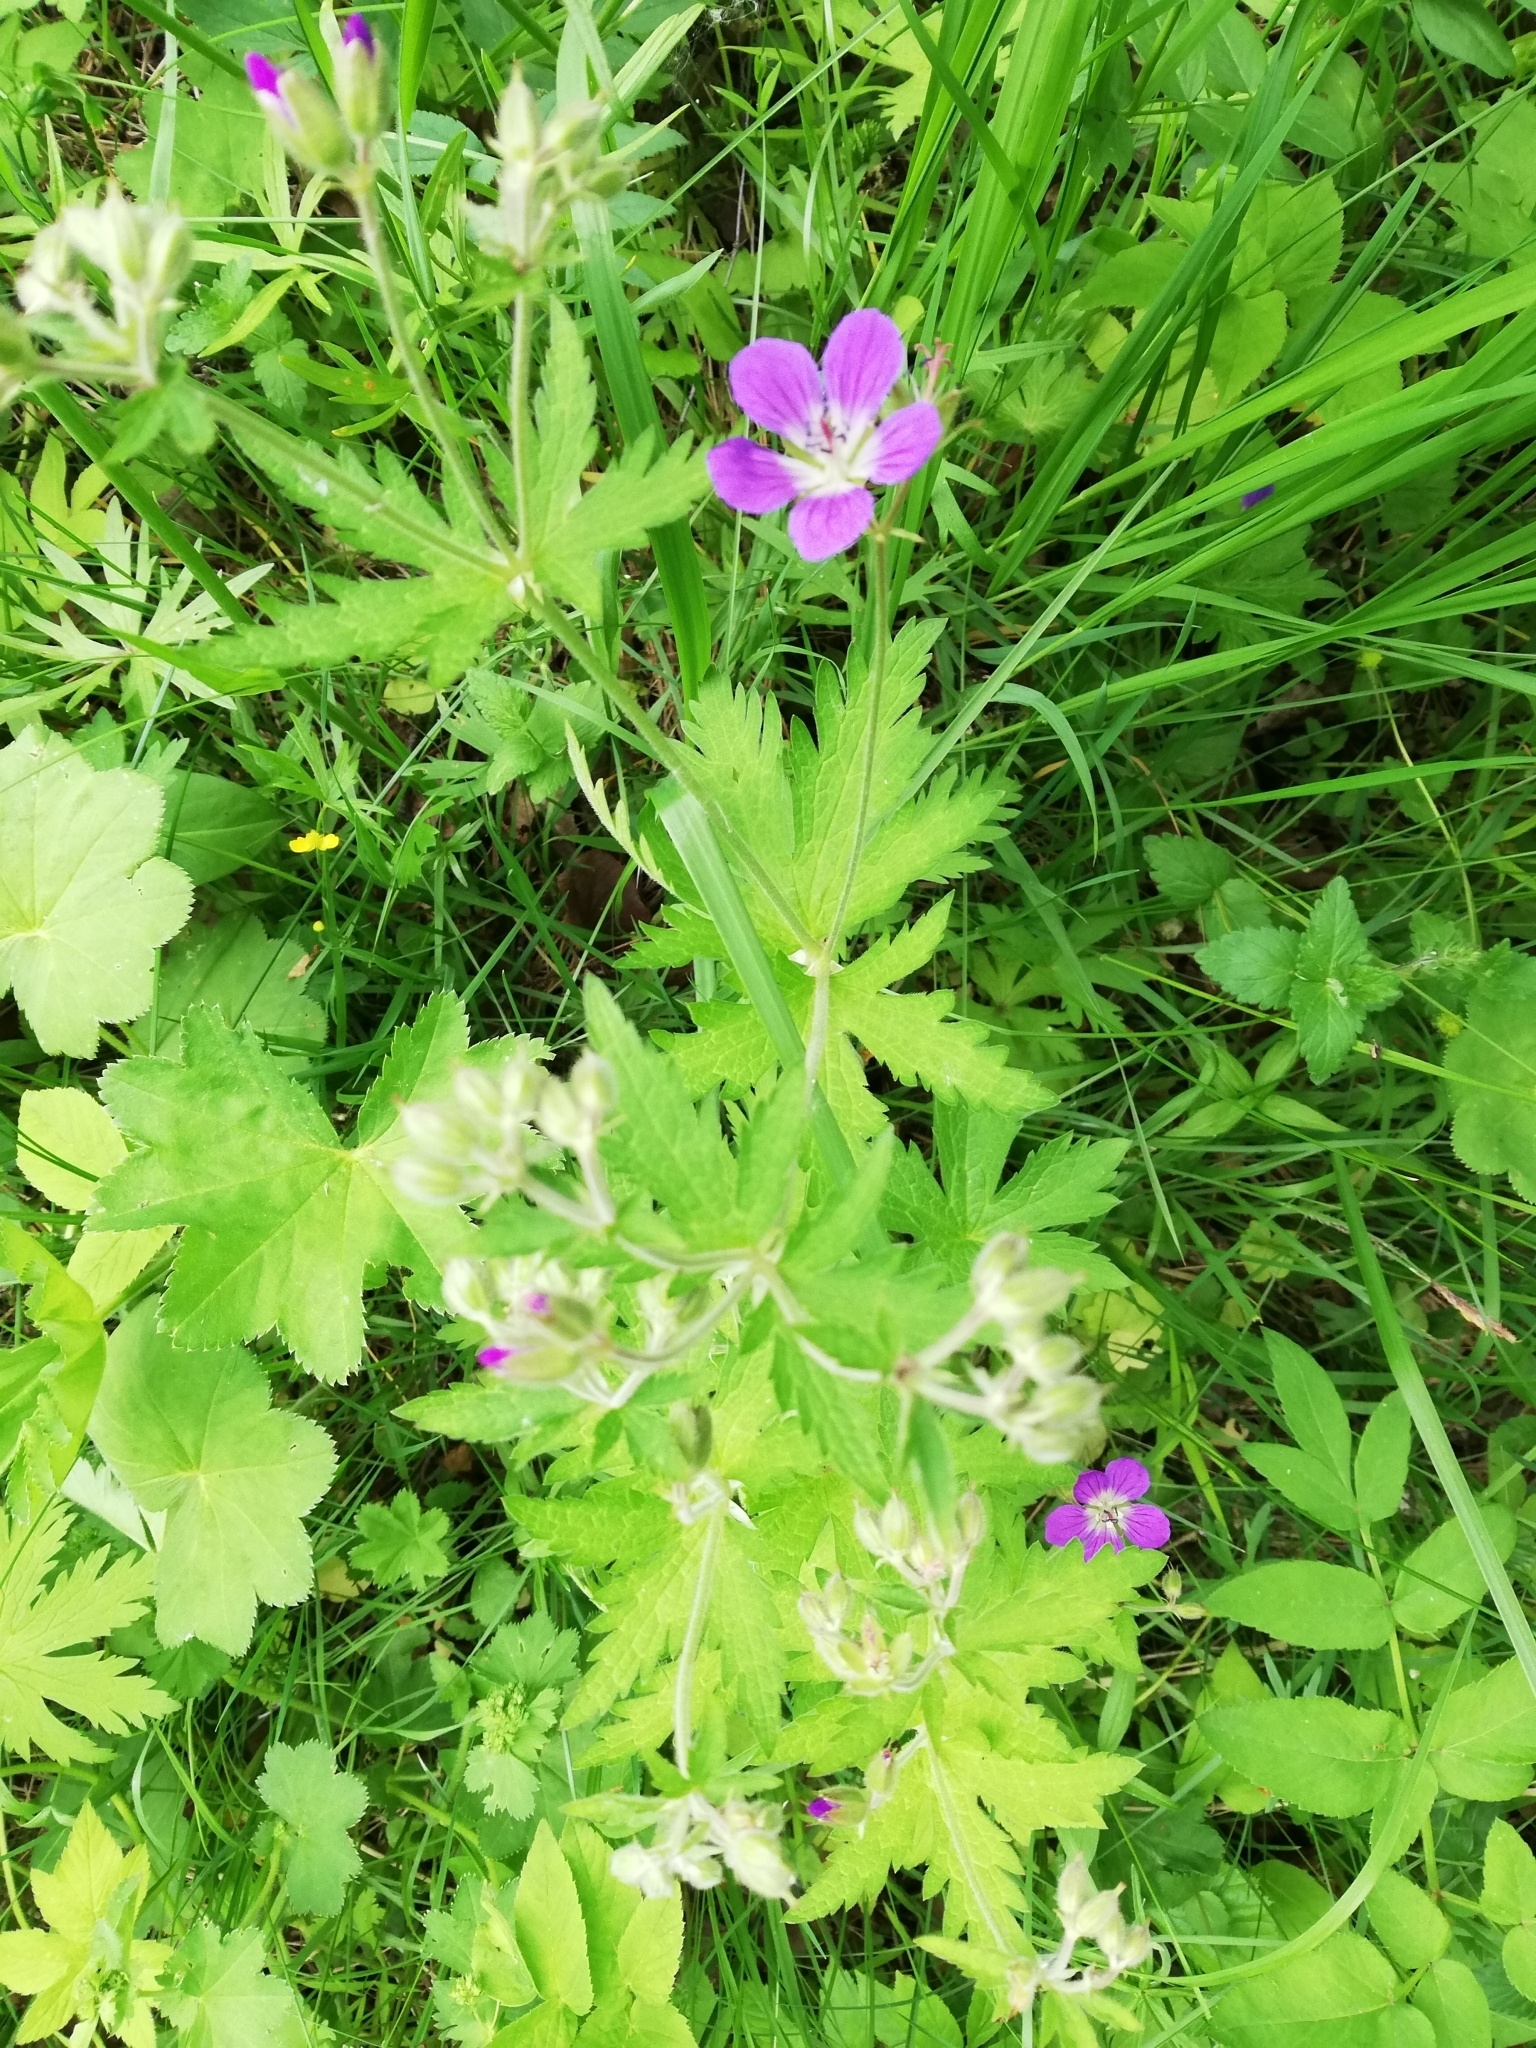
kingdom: Plantae
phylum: Tracheophyta
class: Magnoliopsida
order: Geraniales
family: Geraniaceae
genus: Geranium
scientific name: Geranium sylvaticum
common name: Wood crane's-bill
